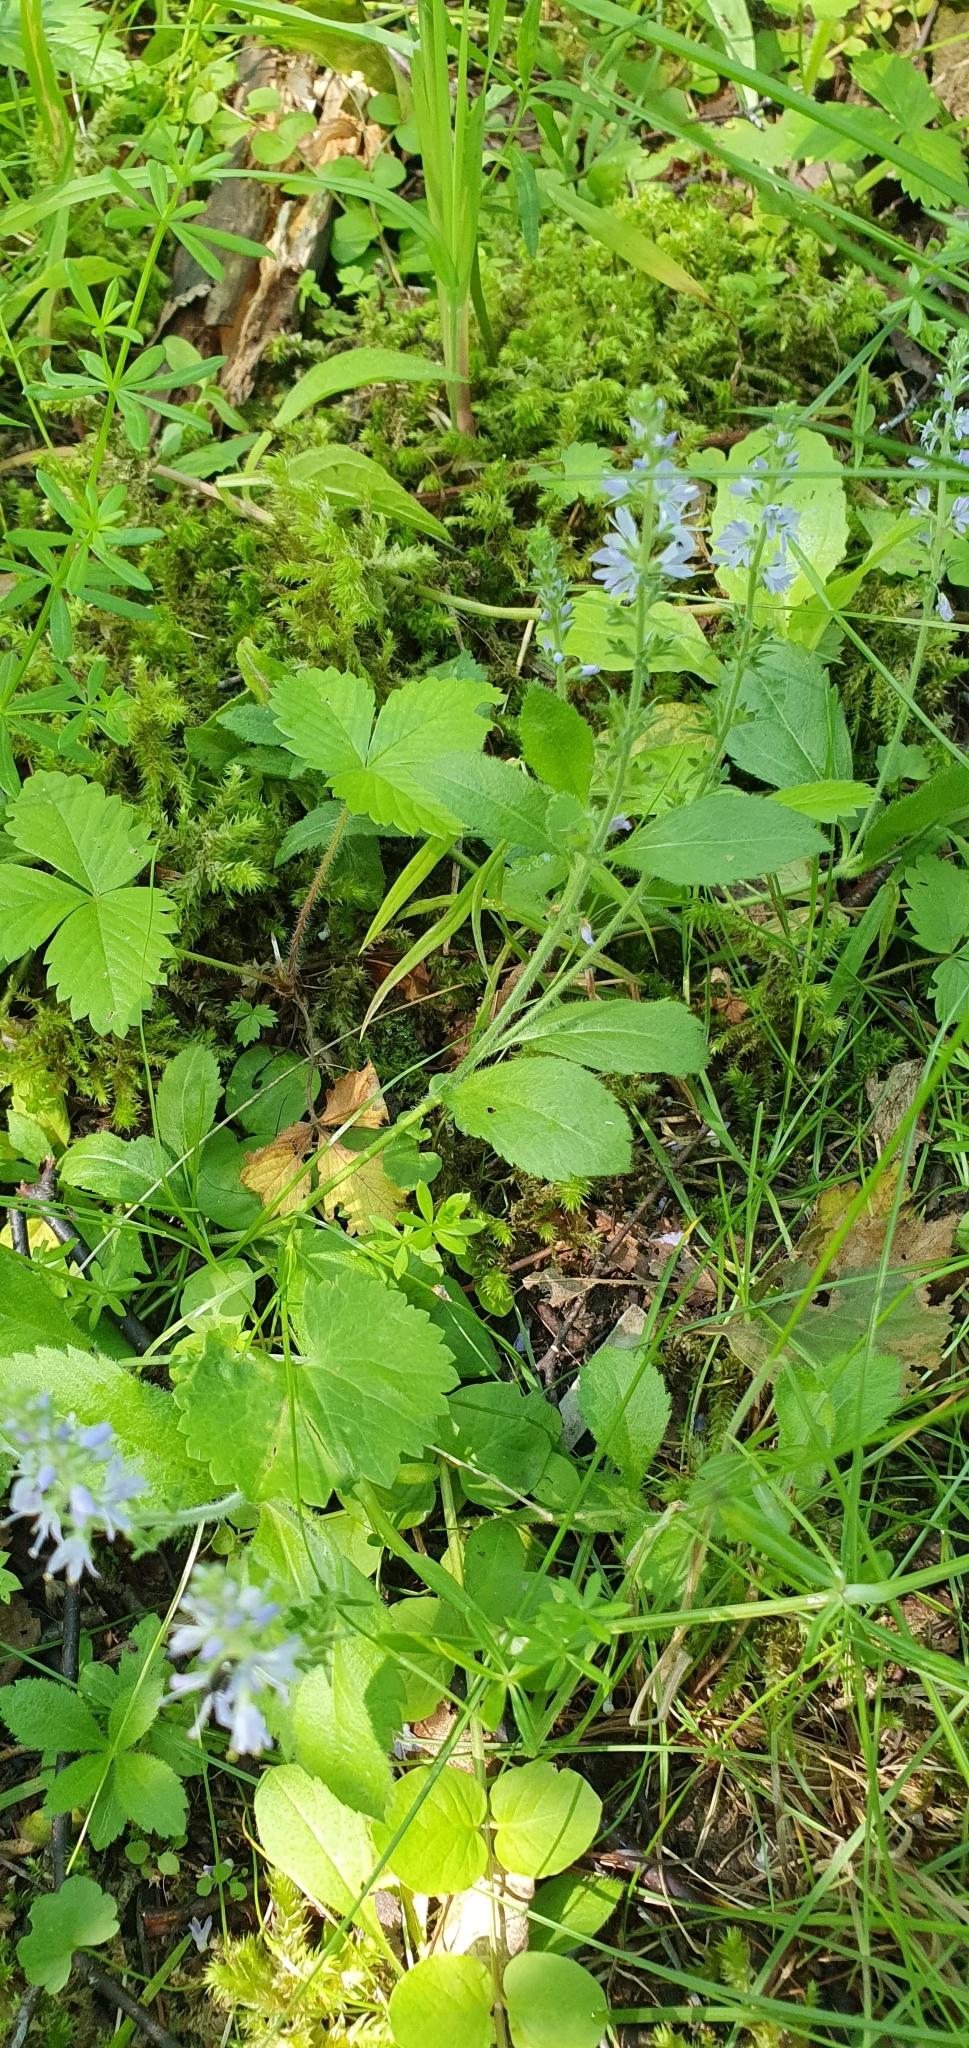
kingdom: Plantae
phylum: Tracheophyta
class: Magnoliopsida
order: Lamiales
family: Plantaginaceae
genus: Veronica
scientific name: Veronica officinalis
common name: Common speedwell
